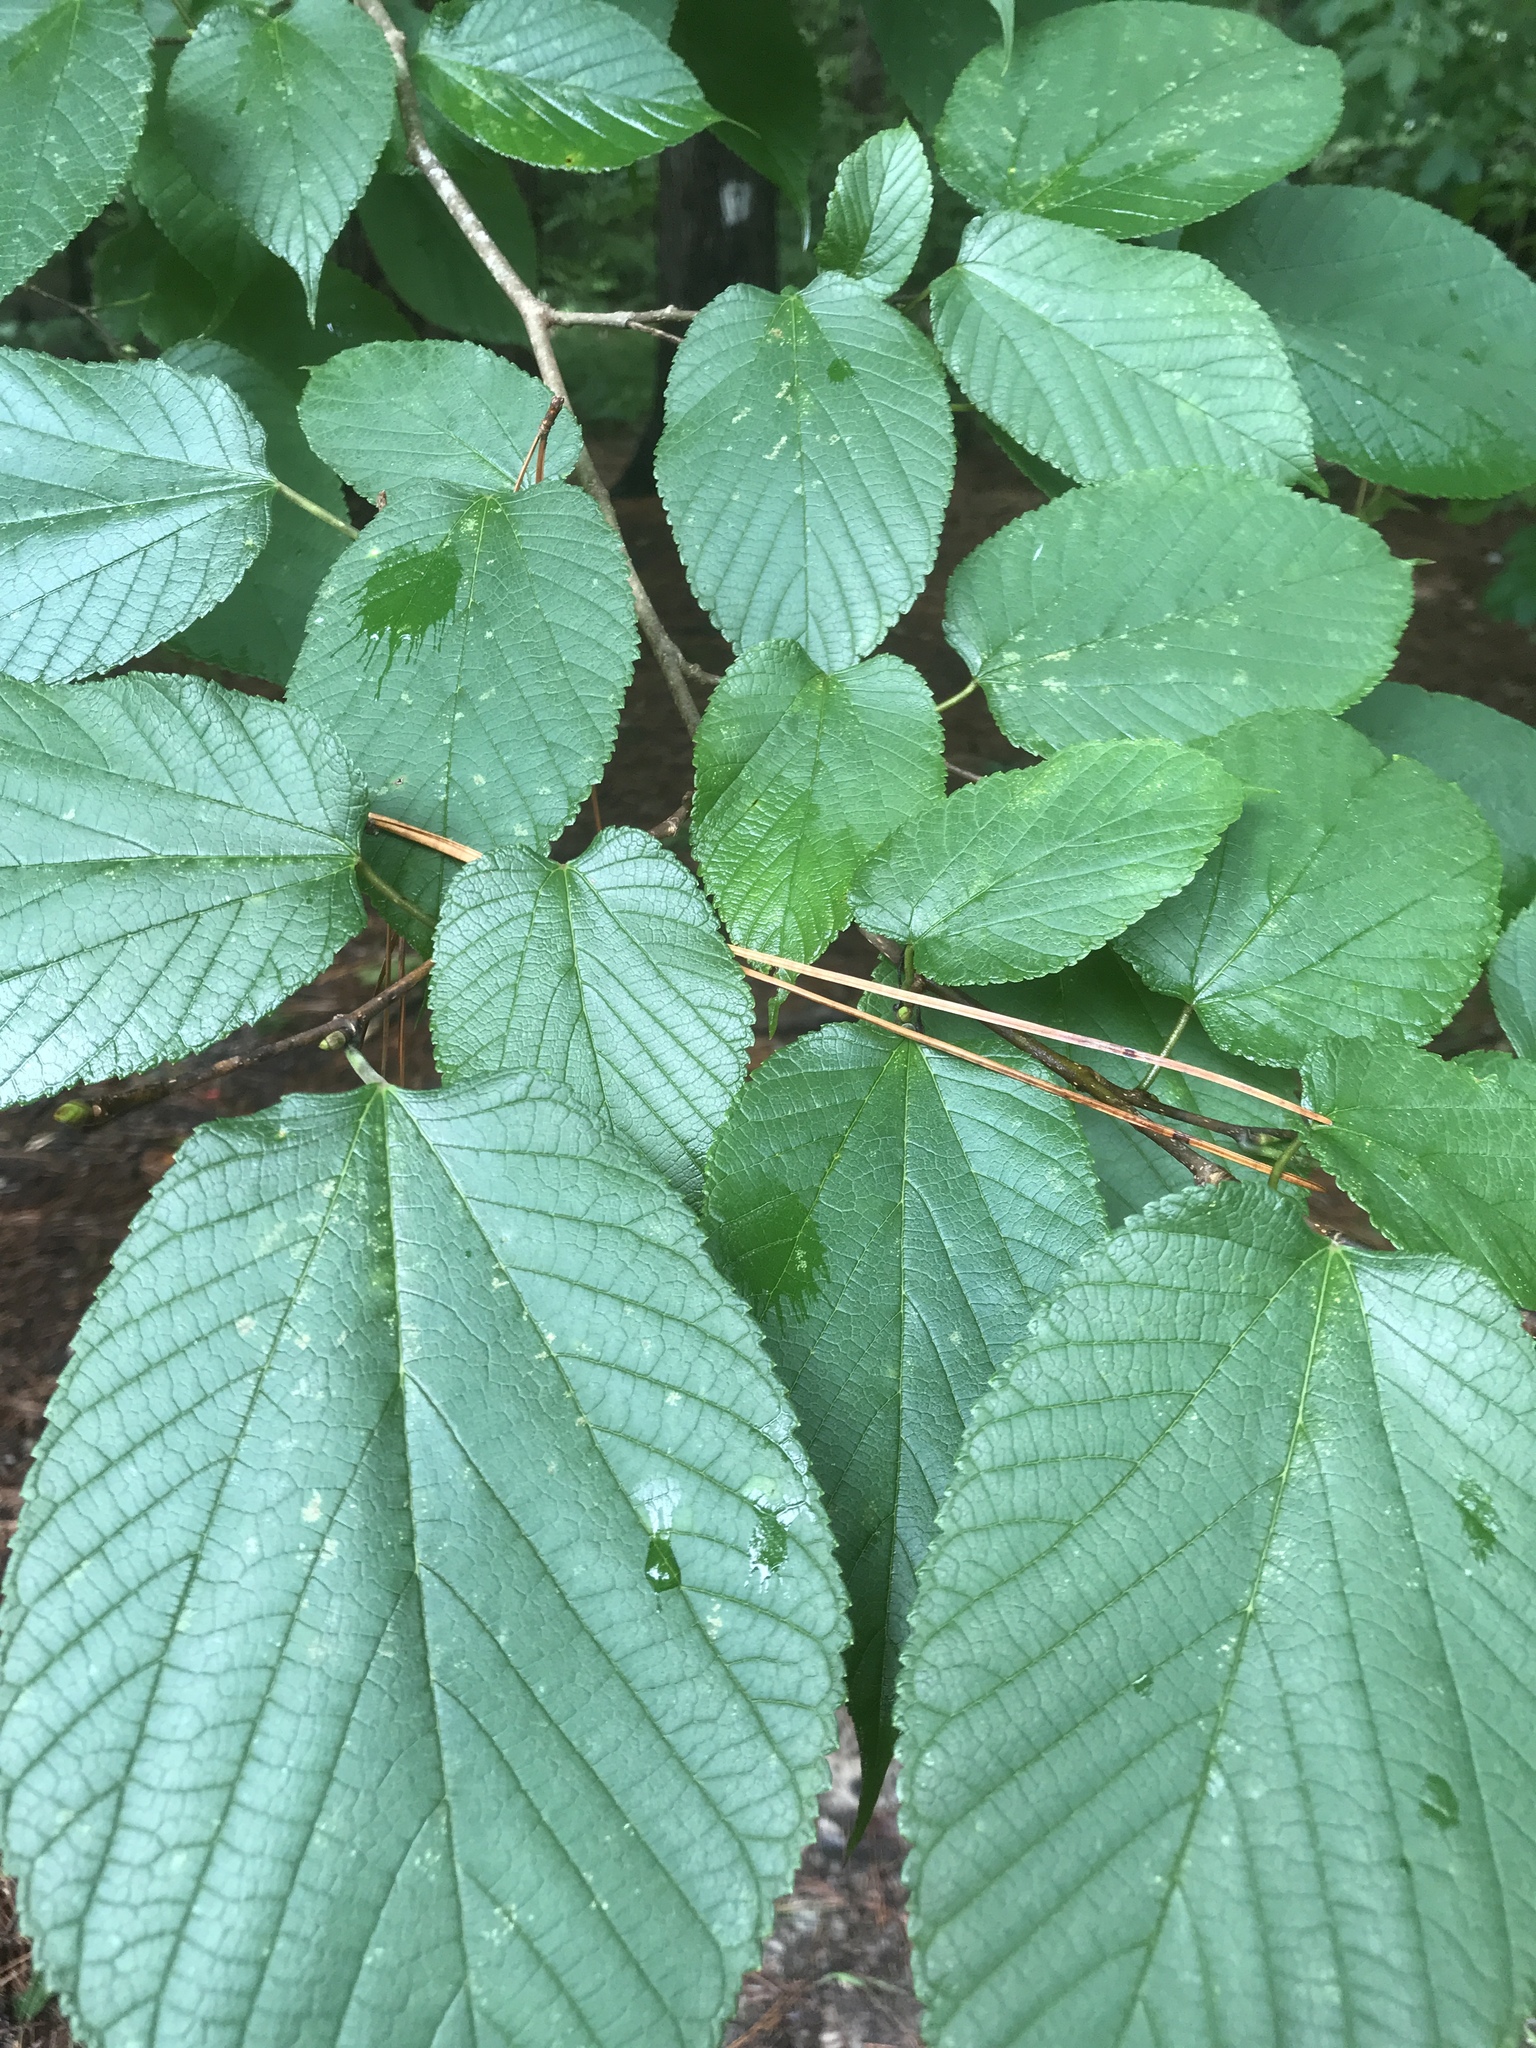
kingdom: Plantae
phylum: Tracheophyta
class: Magnoliopsida
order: Rosales
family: Moraceae
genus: Morus
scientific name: Morus rubra
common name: Red mulberry
